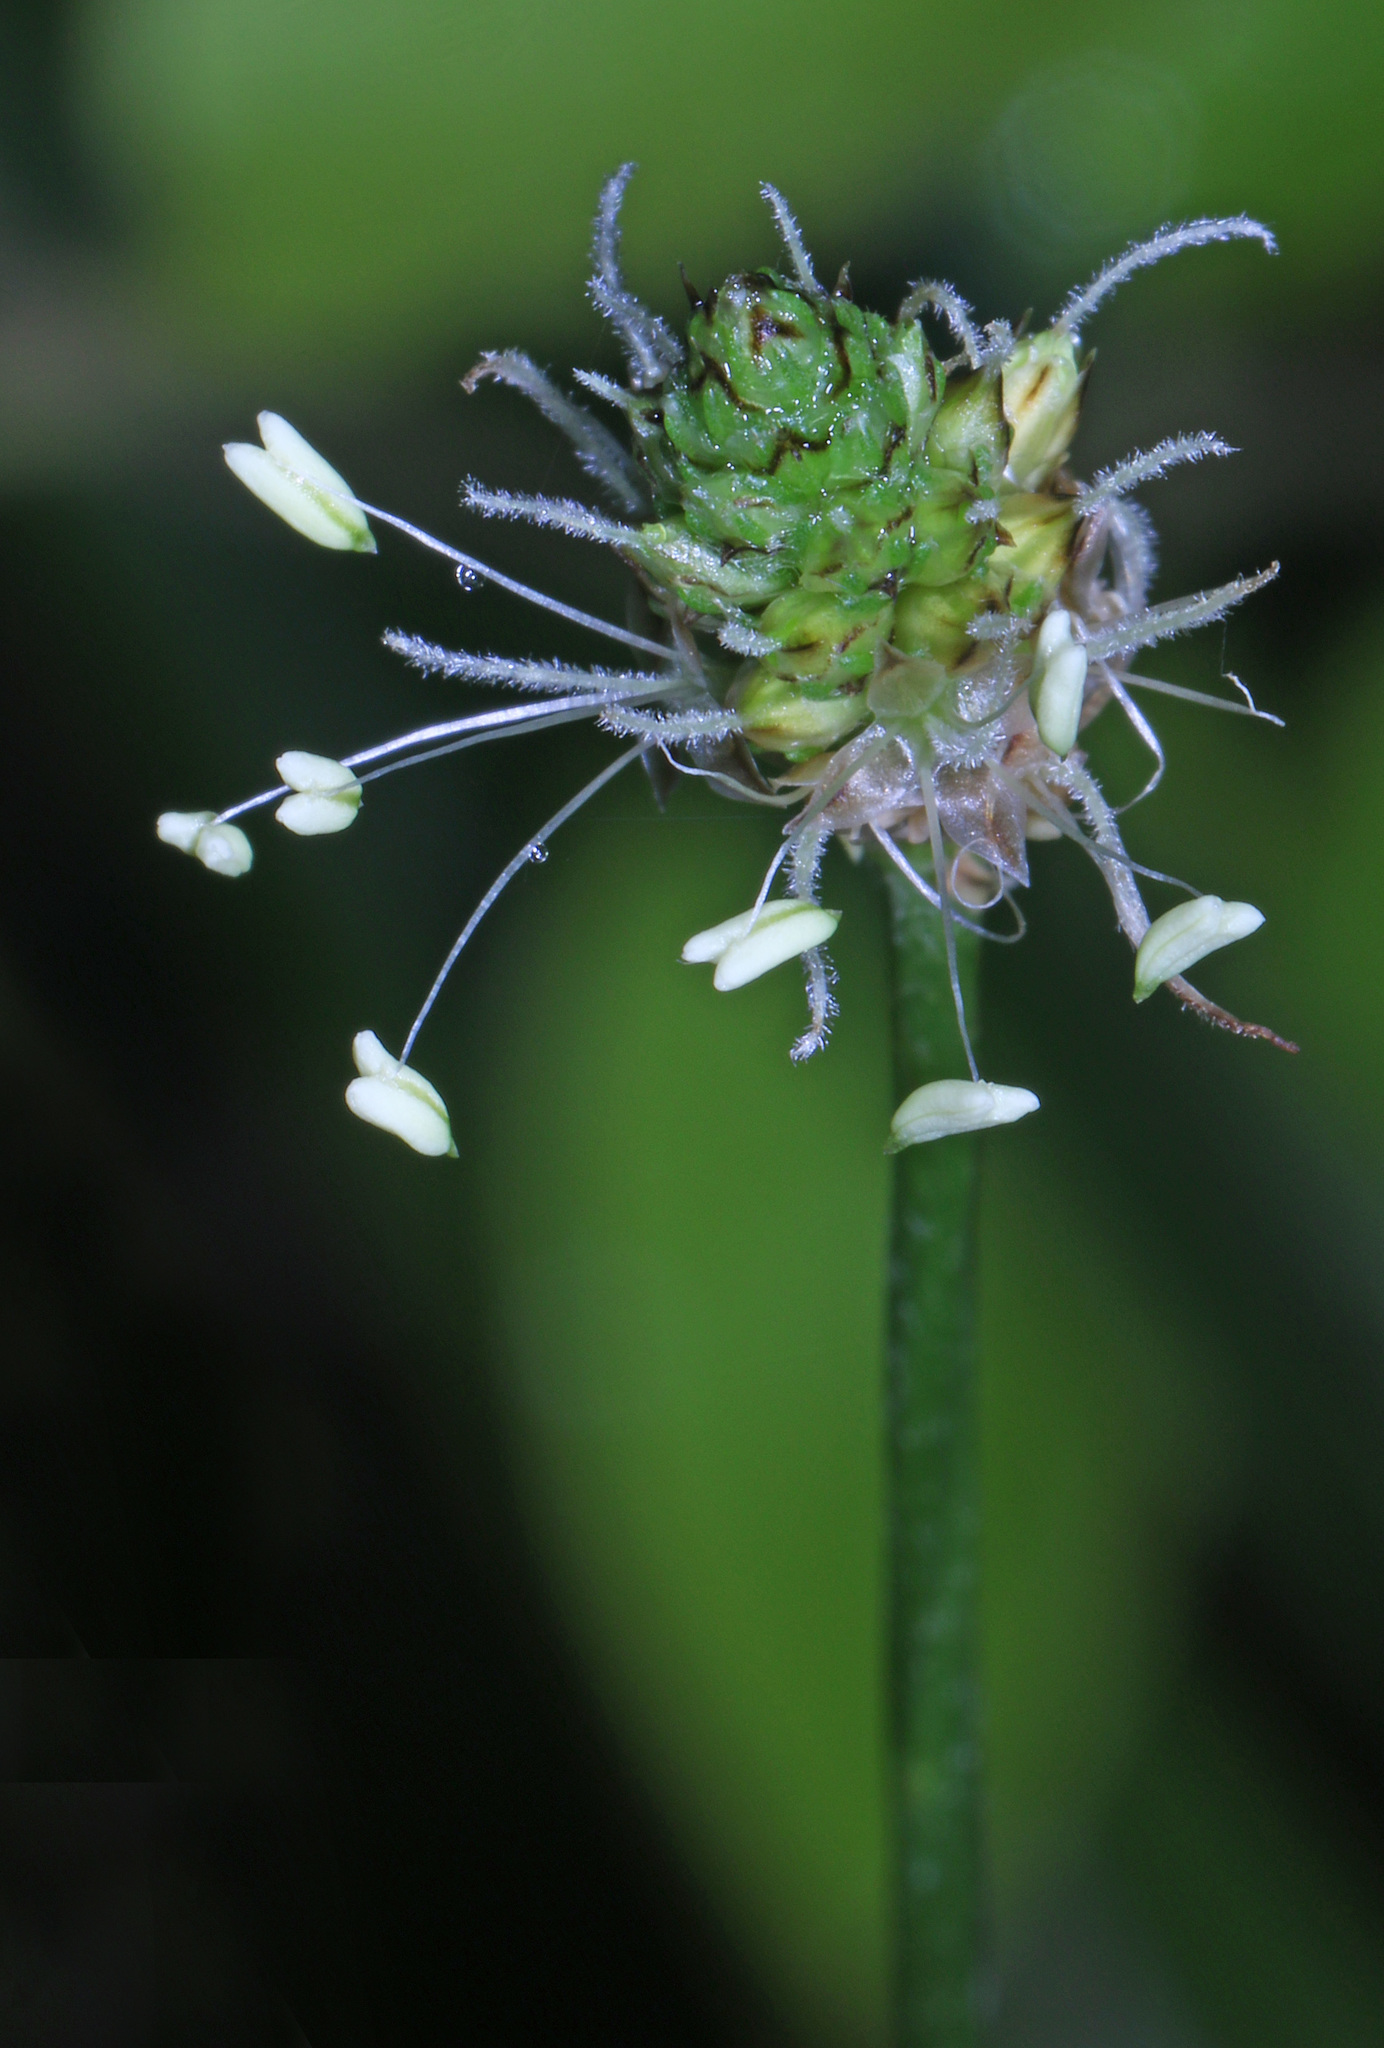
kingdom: Plantae
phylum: Tracheophyta
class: Magnoliopsida
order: Lamiales
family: Plantaginaceae
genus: Plantago
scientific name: Plantago lanceolata
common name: Ribwort plantain
